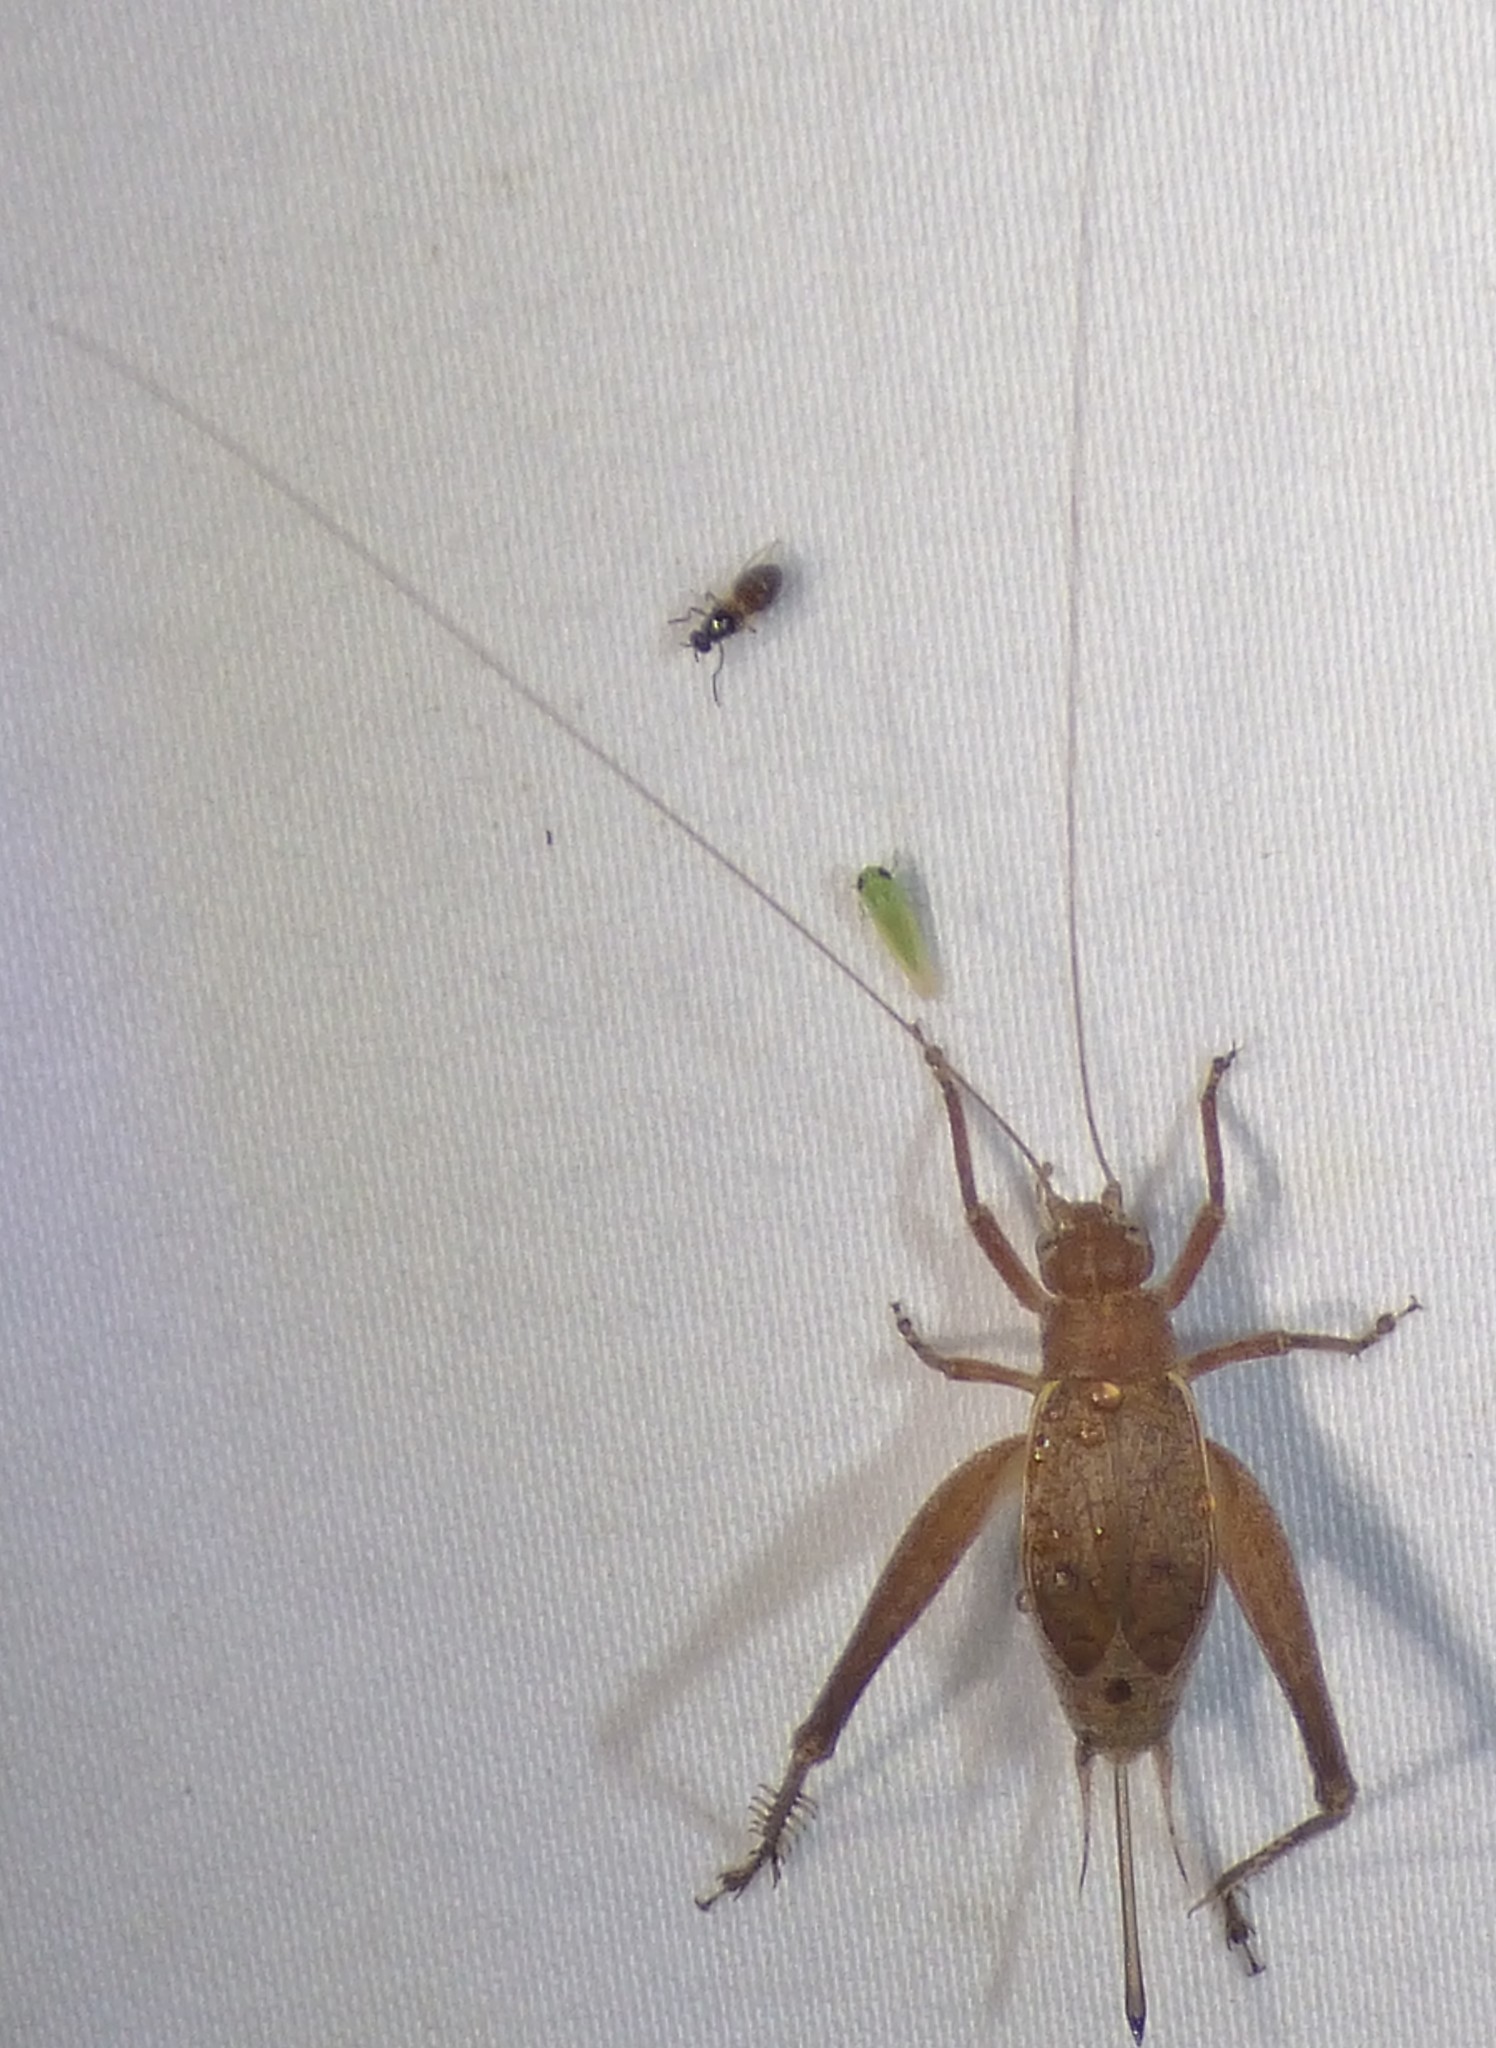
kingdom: Animalia
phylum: Arthropoda
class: Insecta
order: Orthoptera
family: Gryllidae
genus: Hapithus
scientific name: Hapithus agitator
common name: Restless bush cricket
